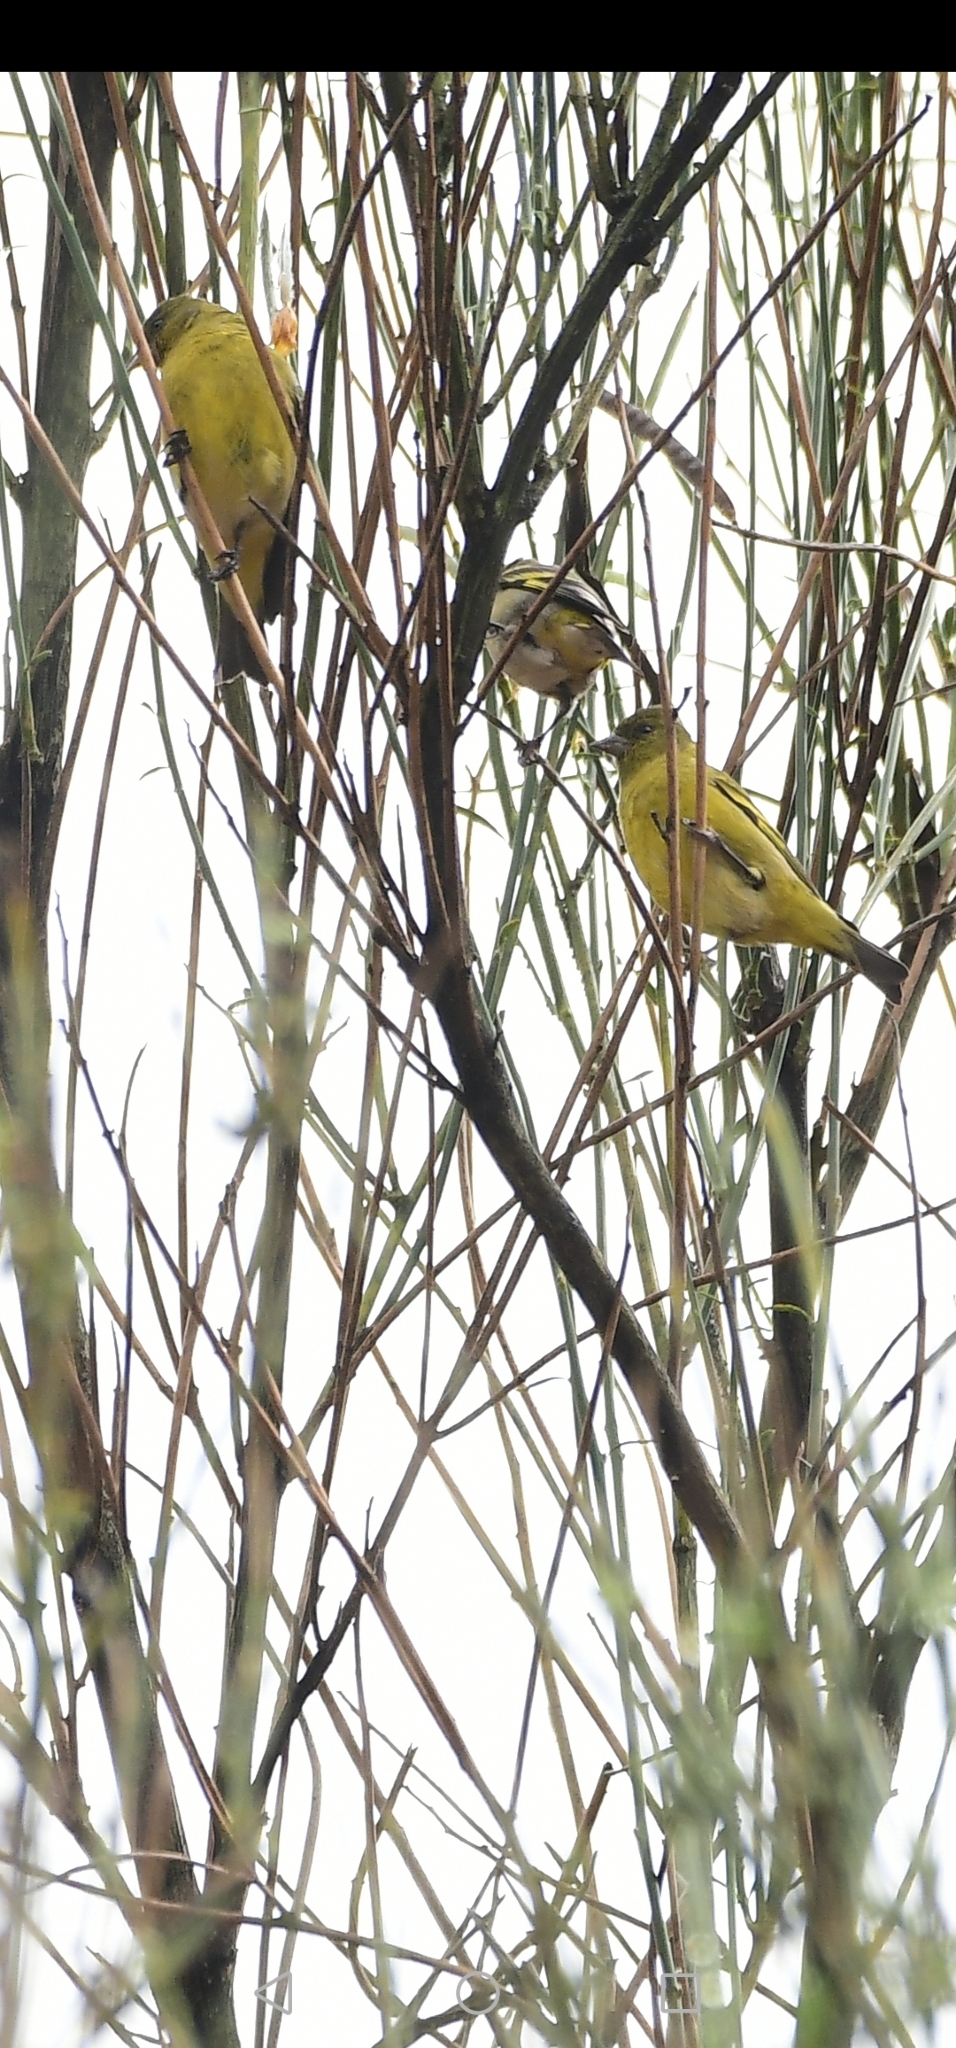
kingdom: Animalia
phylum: Chordata
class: Aves
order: Passeriformes
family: Fringillidae
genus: Spinus
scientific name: Spinus magellanicus
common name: Hooded siskin
